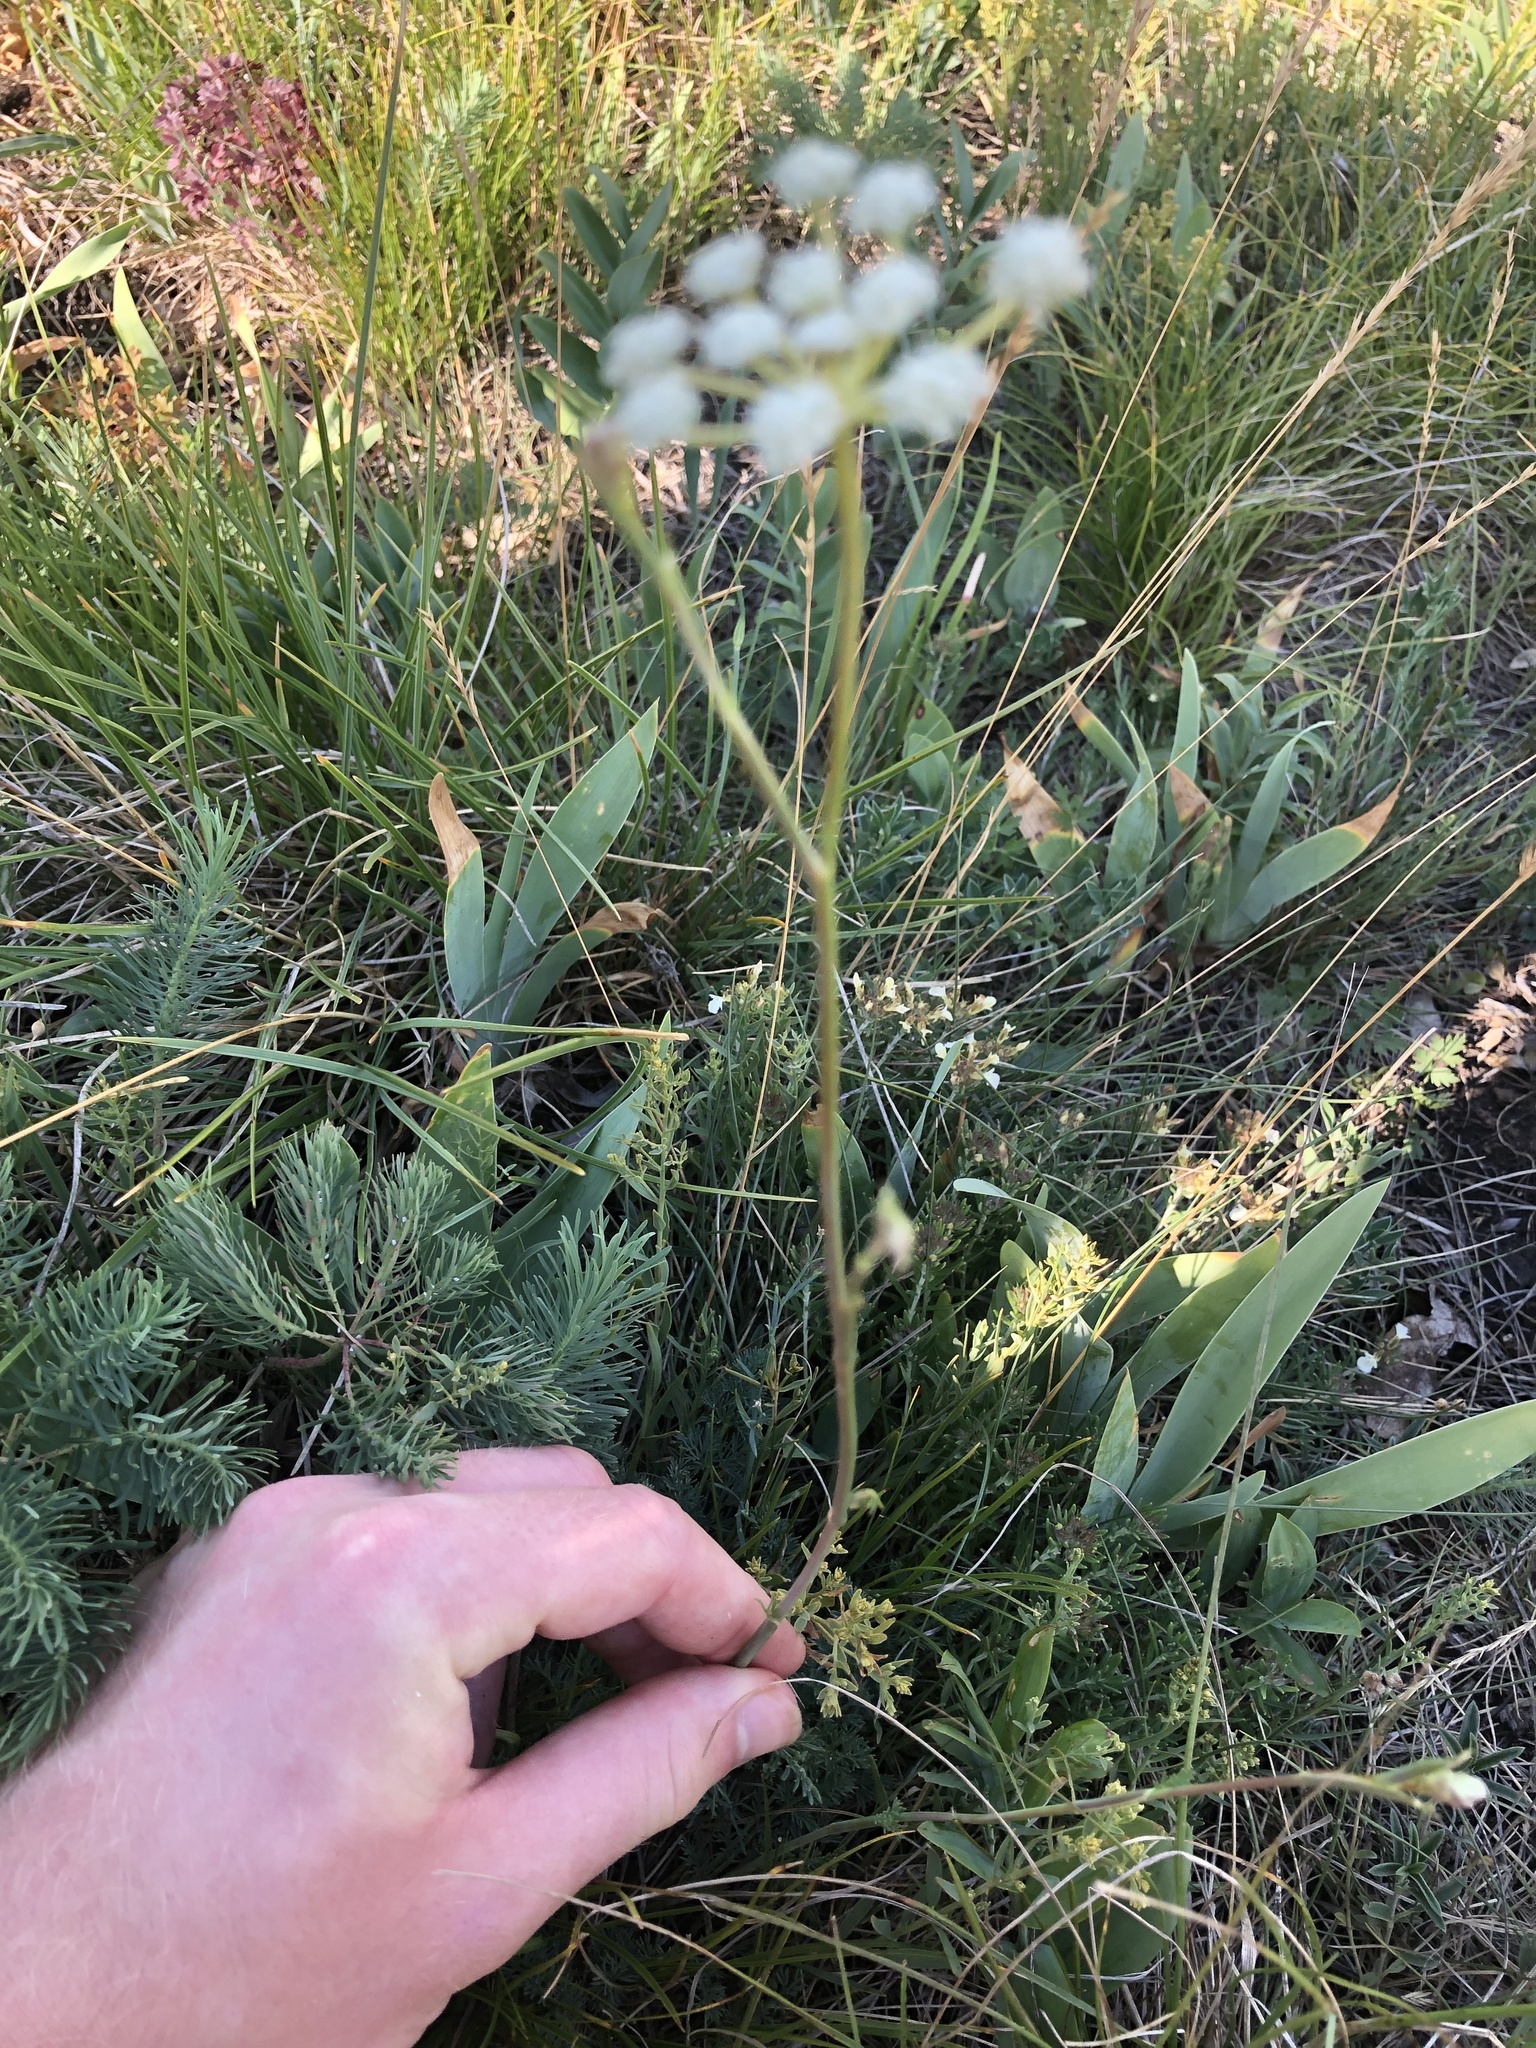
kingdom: Plantae
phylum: Tracheophyta
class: Magnoliopsida
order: Apiales
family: Apiaceae
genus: Hippomarathrum
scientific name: Hippomarathrum
